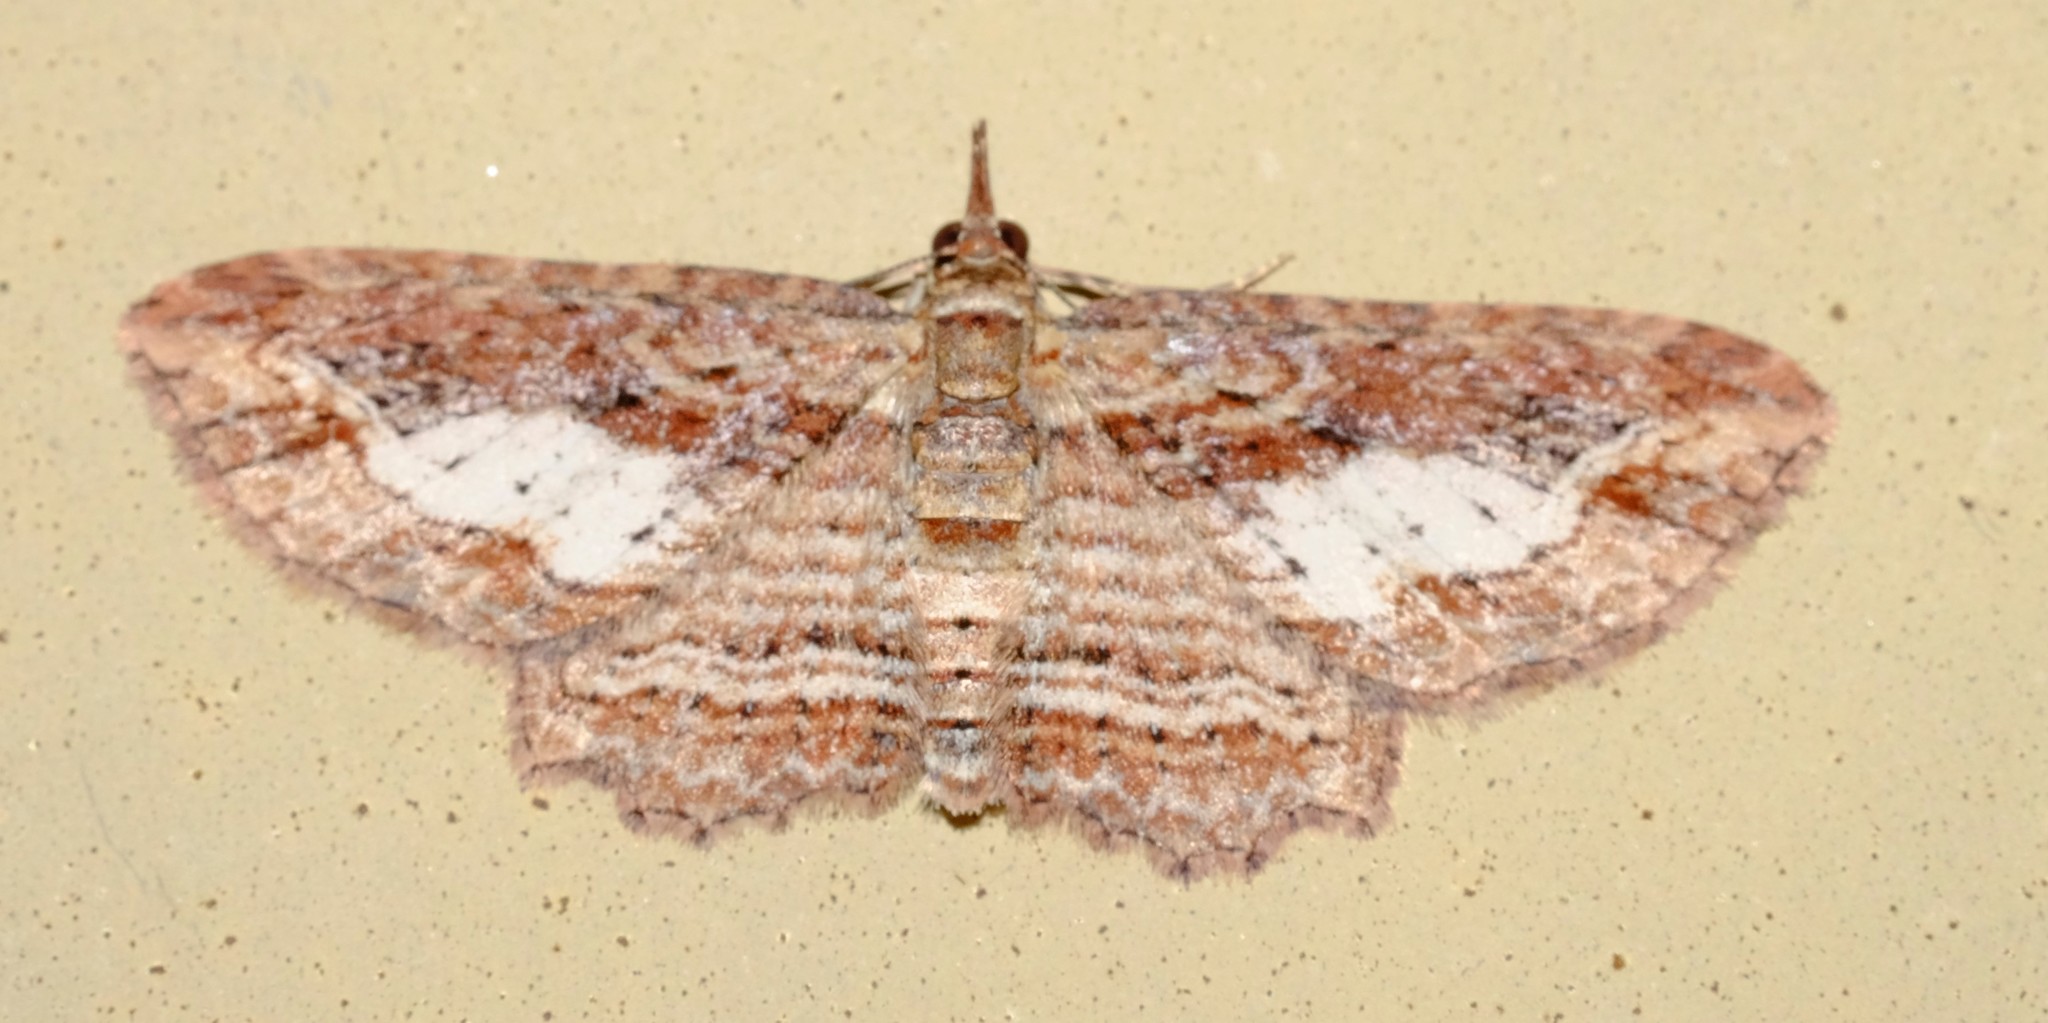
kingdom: Animalia
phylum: Arthropoda
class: Insecta
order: Lepidoptera
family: Geometridae
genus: Chloroclystis
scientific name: Chloroclystis filata
